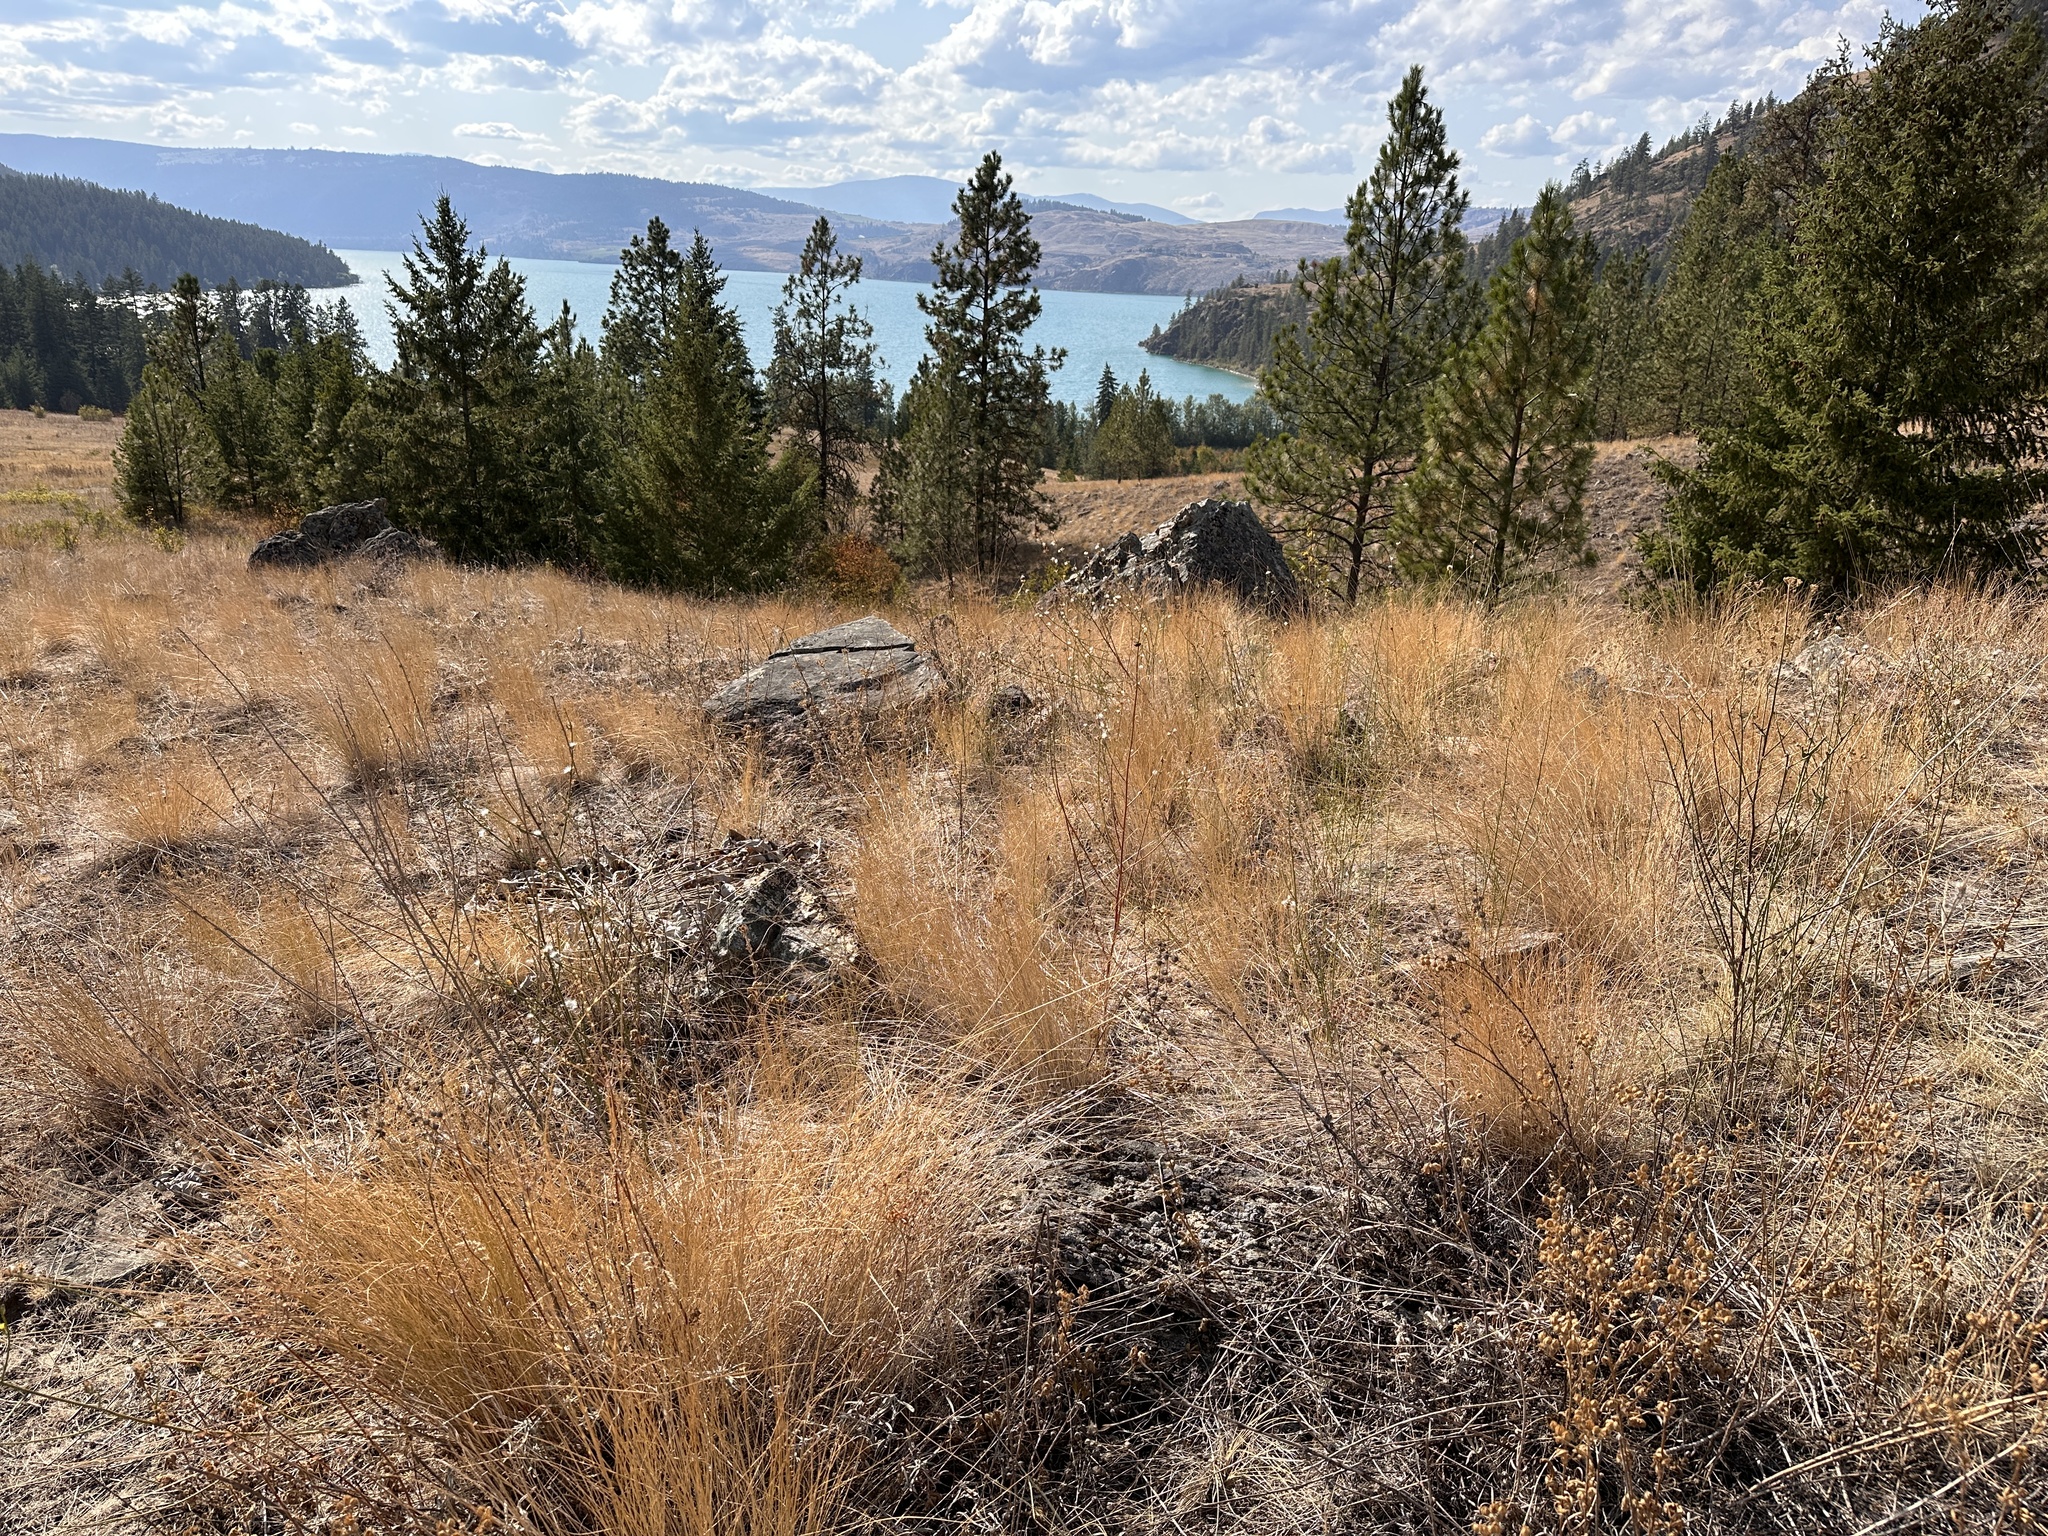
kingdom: Plantae
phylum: Tracheophyta
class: Magnoliopsida
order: Asterales
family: Asteraceae
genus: Chondrilla
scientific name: Chondrilla juncea
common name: Skeleton weed
